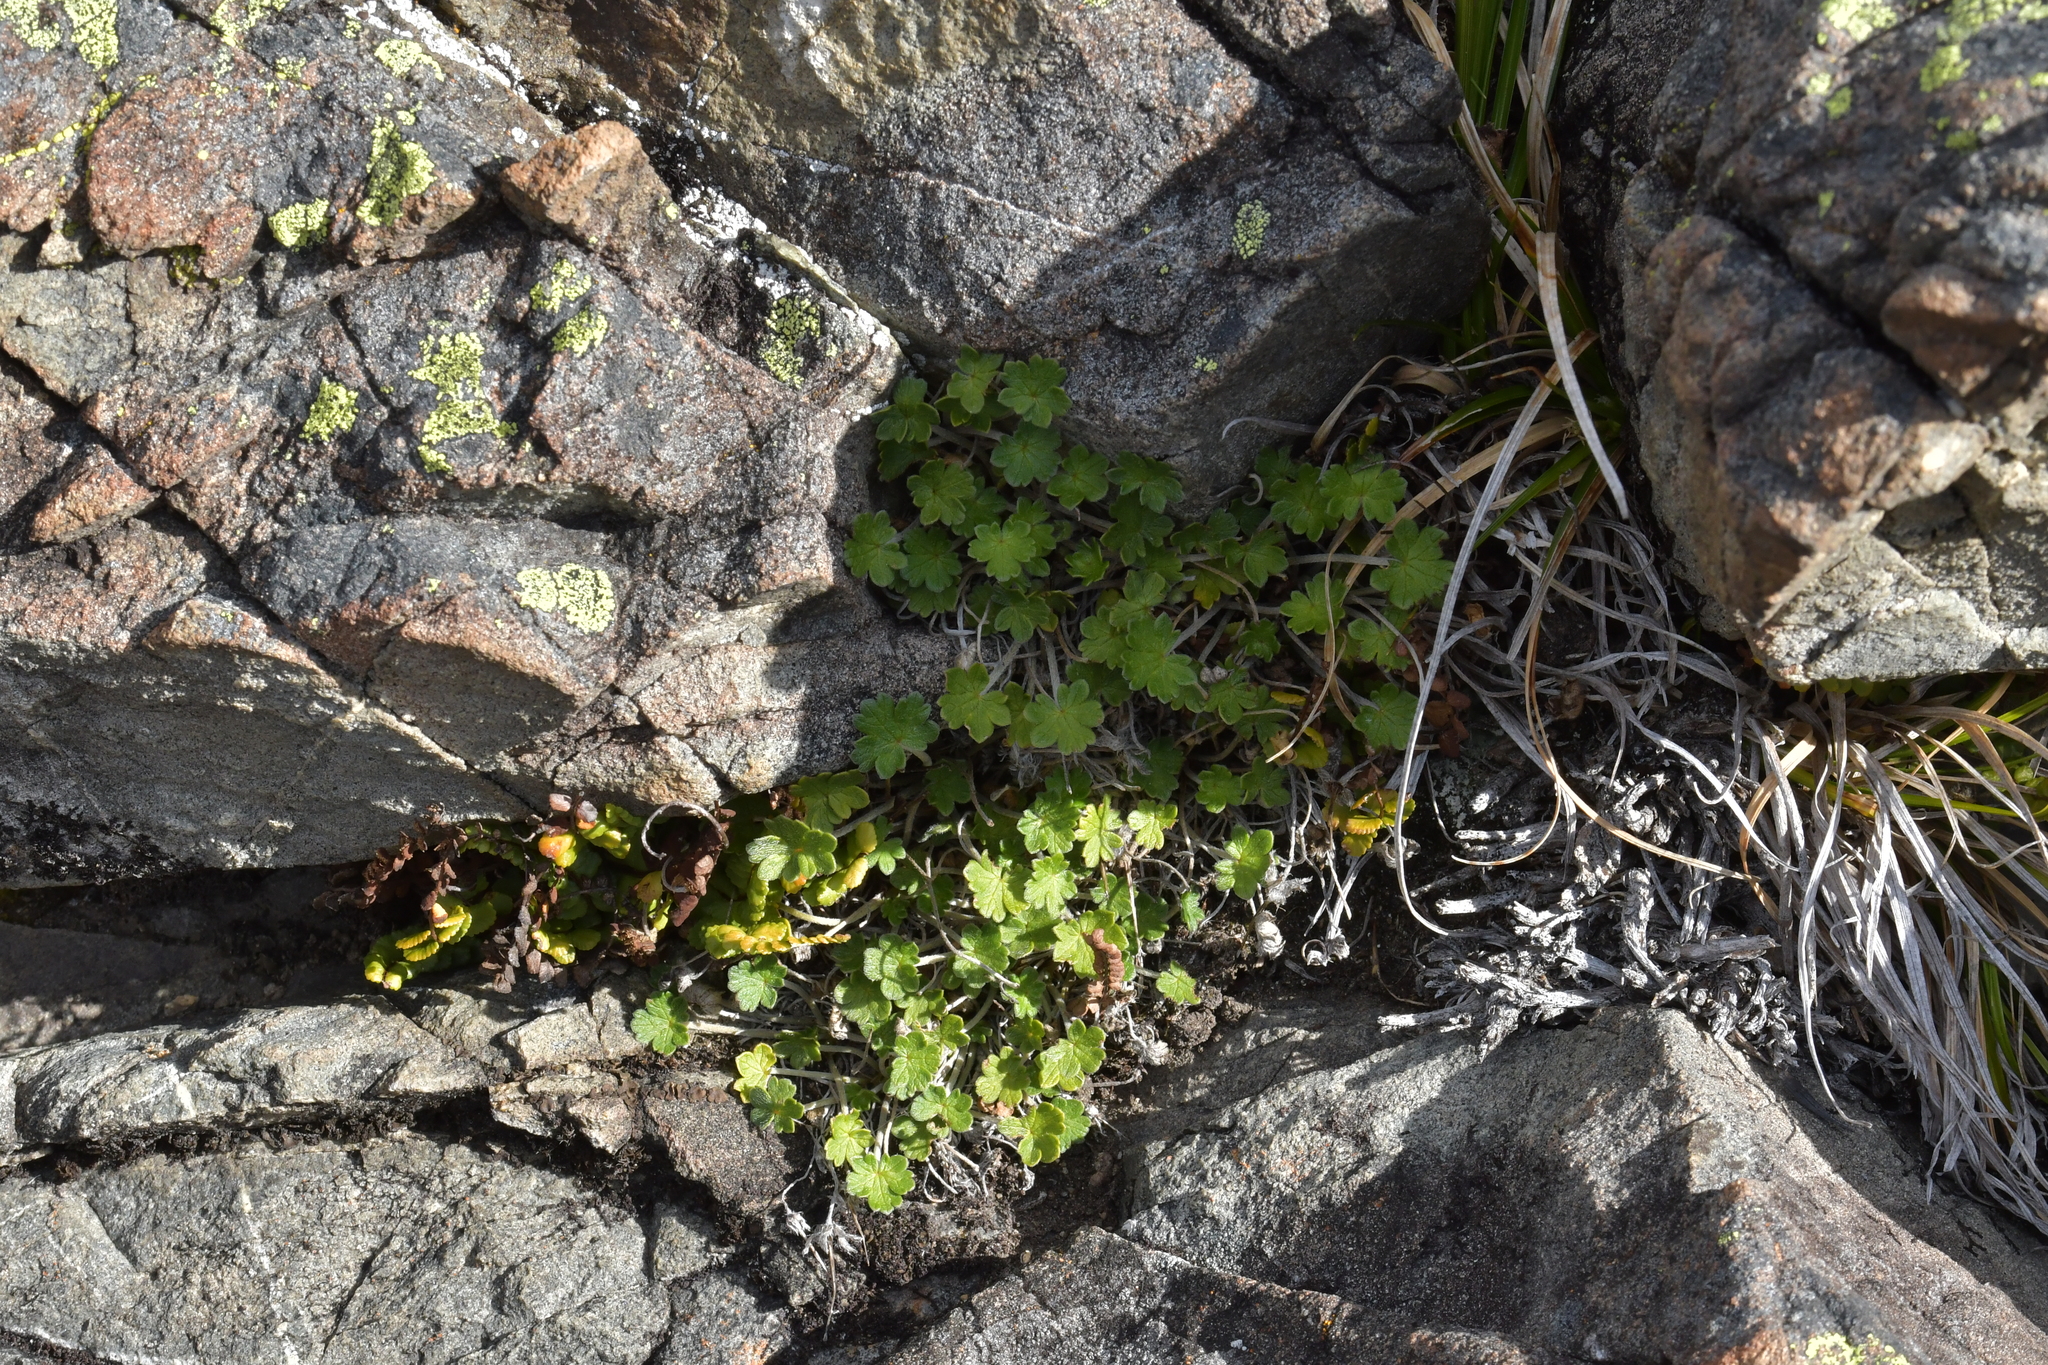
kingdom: Plantae
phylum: Tracheophyta
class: Magnoliopsida
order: Geraniales
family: Geraniaceae
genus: Geranium
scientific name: Geranium brevicaule
